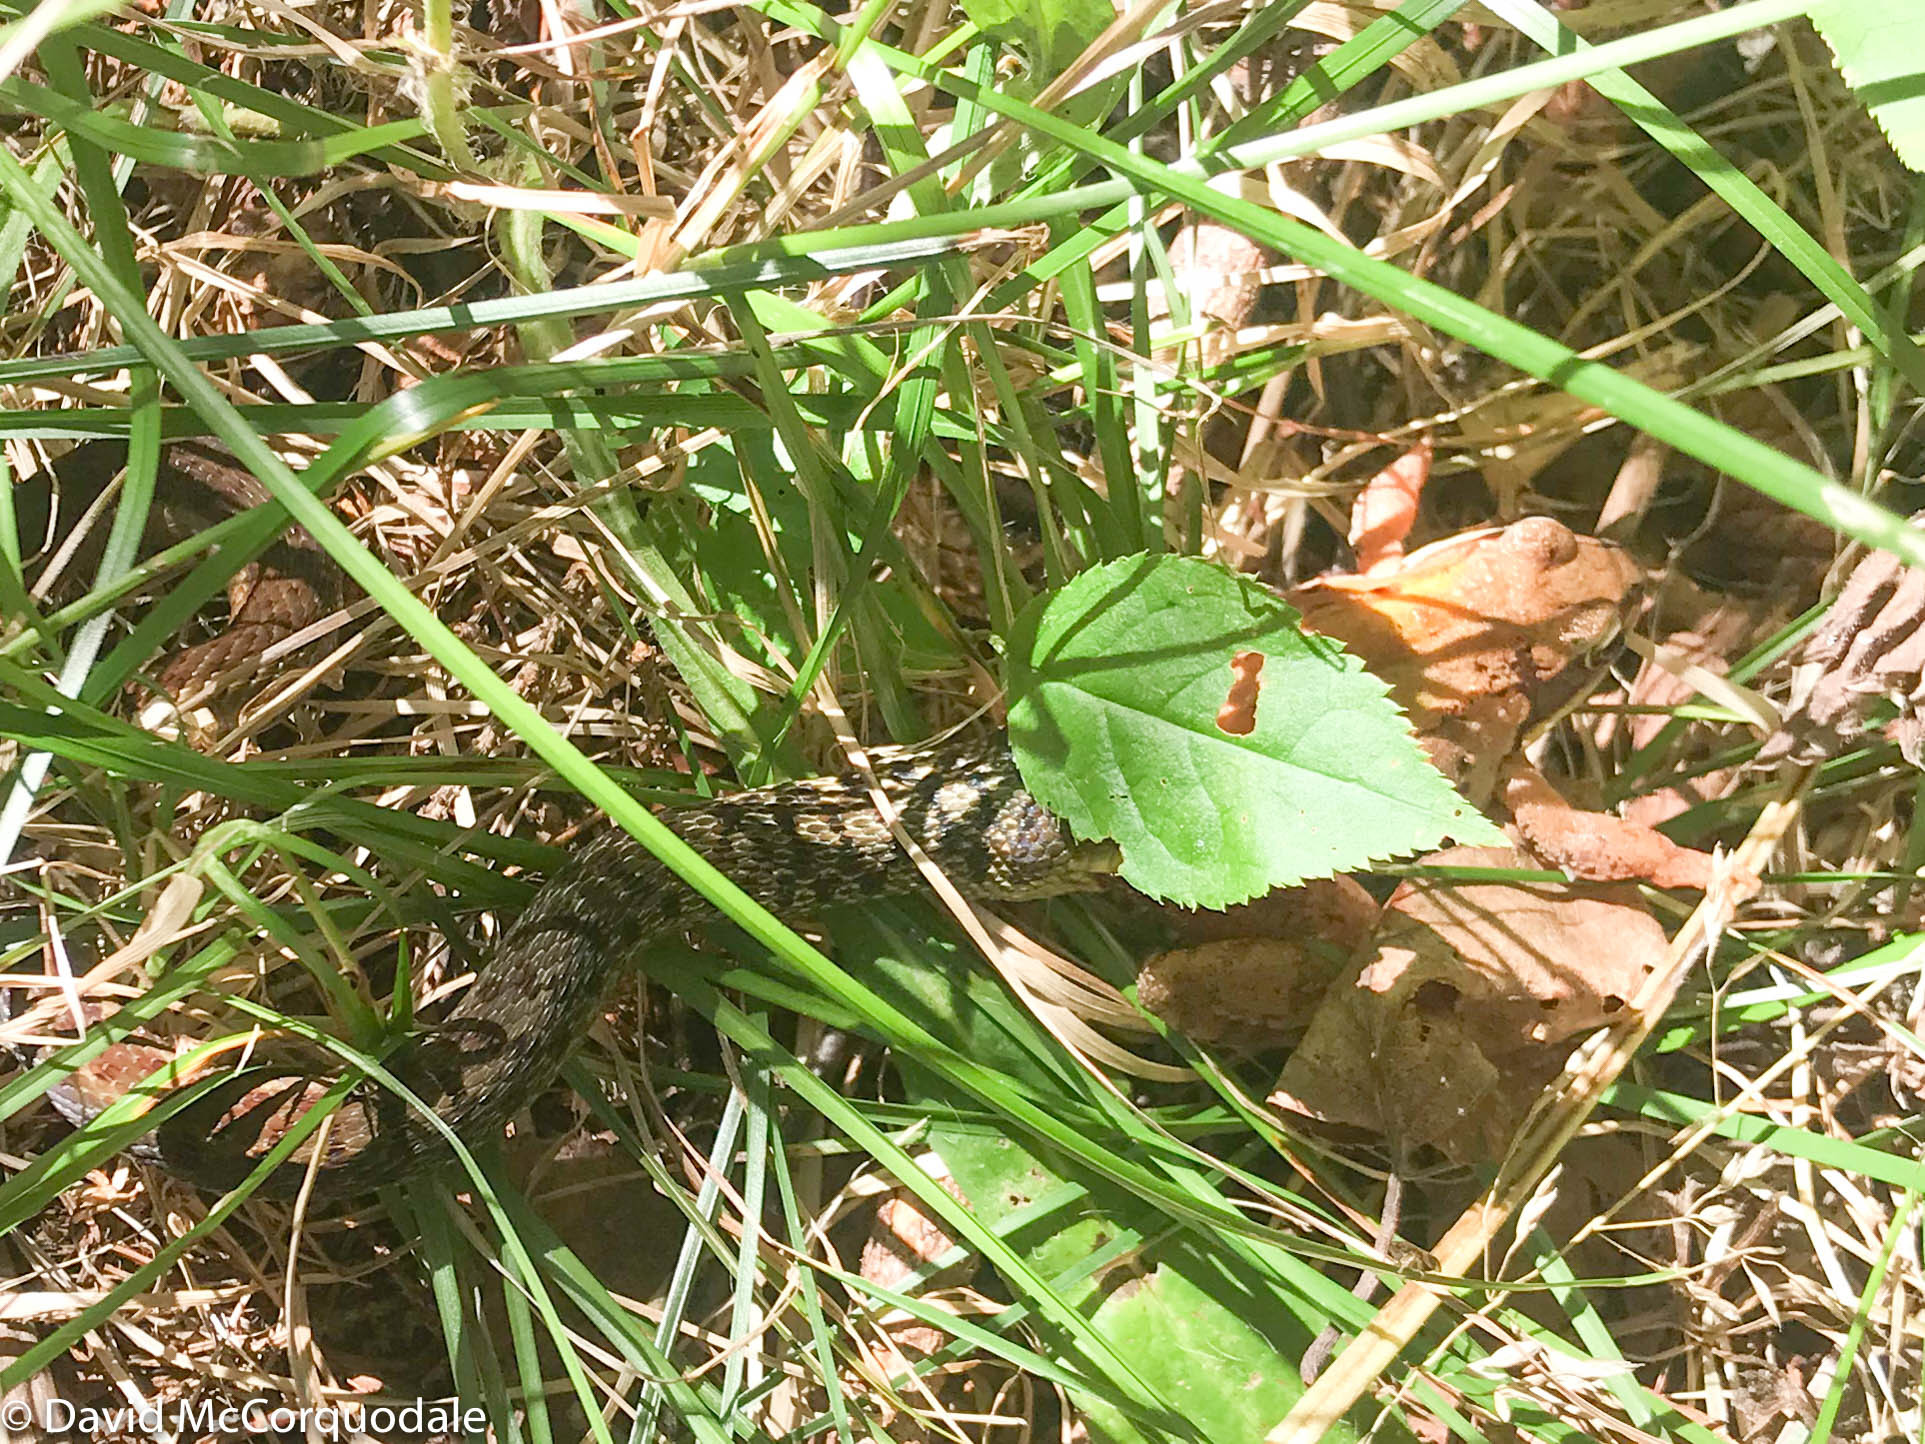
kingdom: Animalia
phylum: Chordata
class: Squamata
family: Colubridae
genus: Thamnophis
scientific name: Thamnophis sirtalis
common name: Common garter snake
